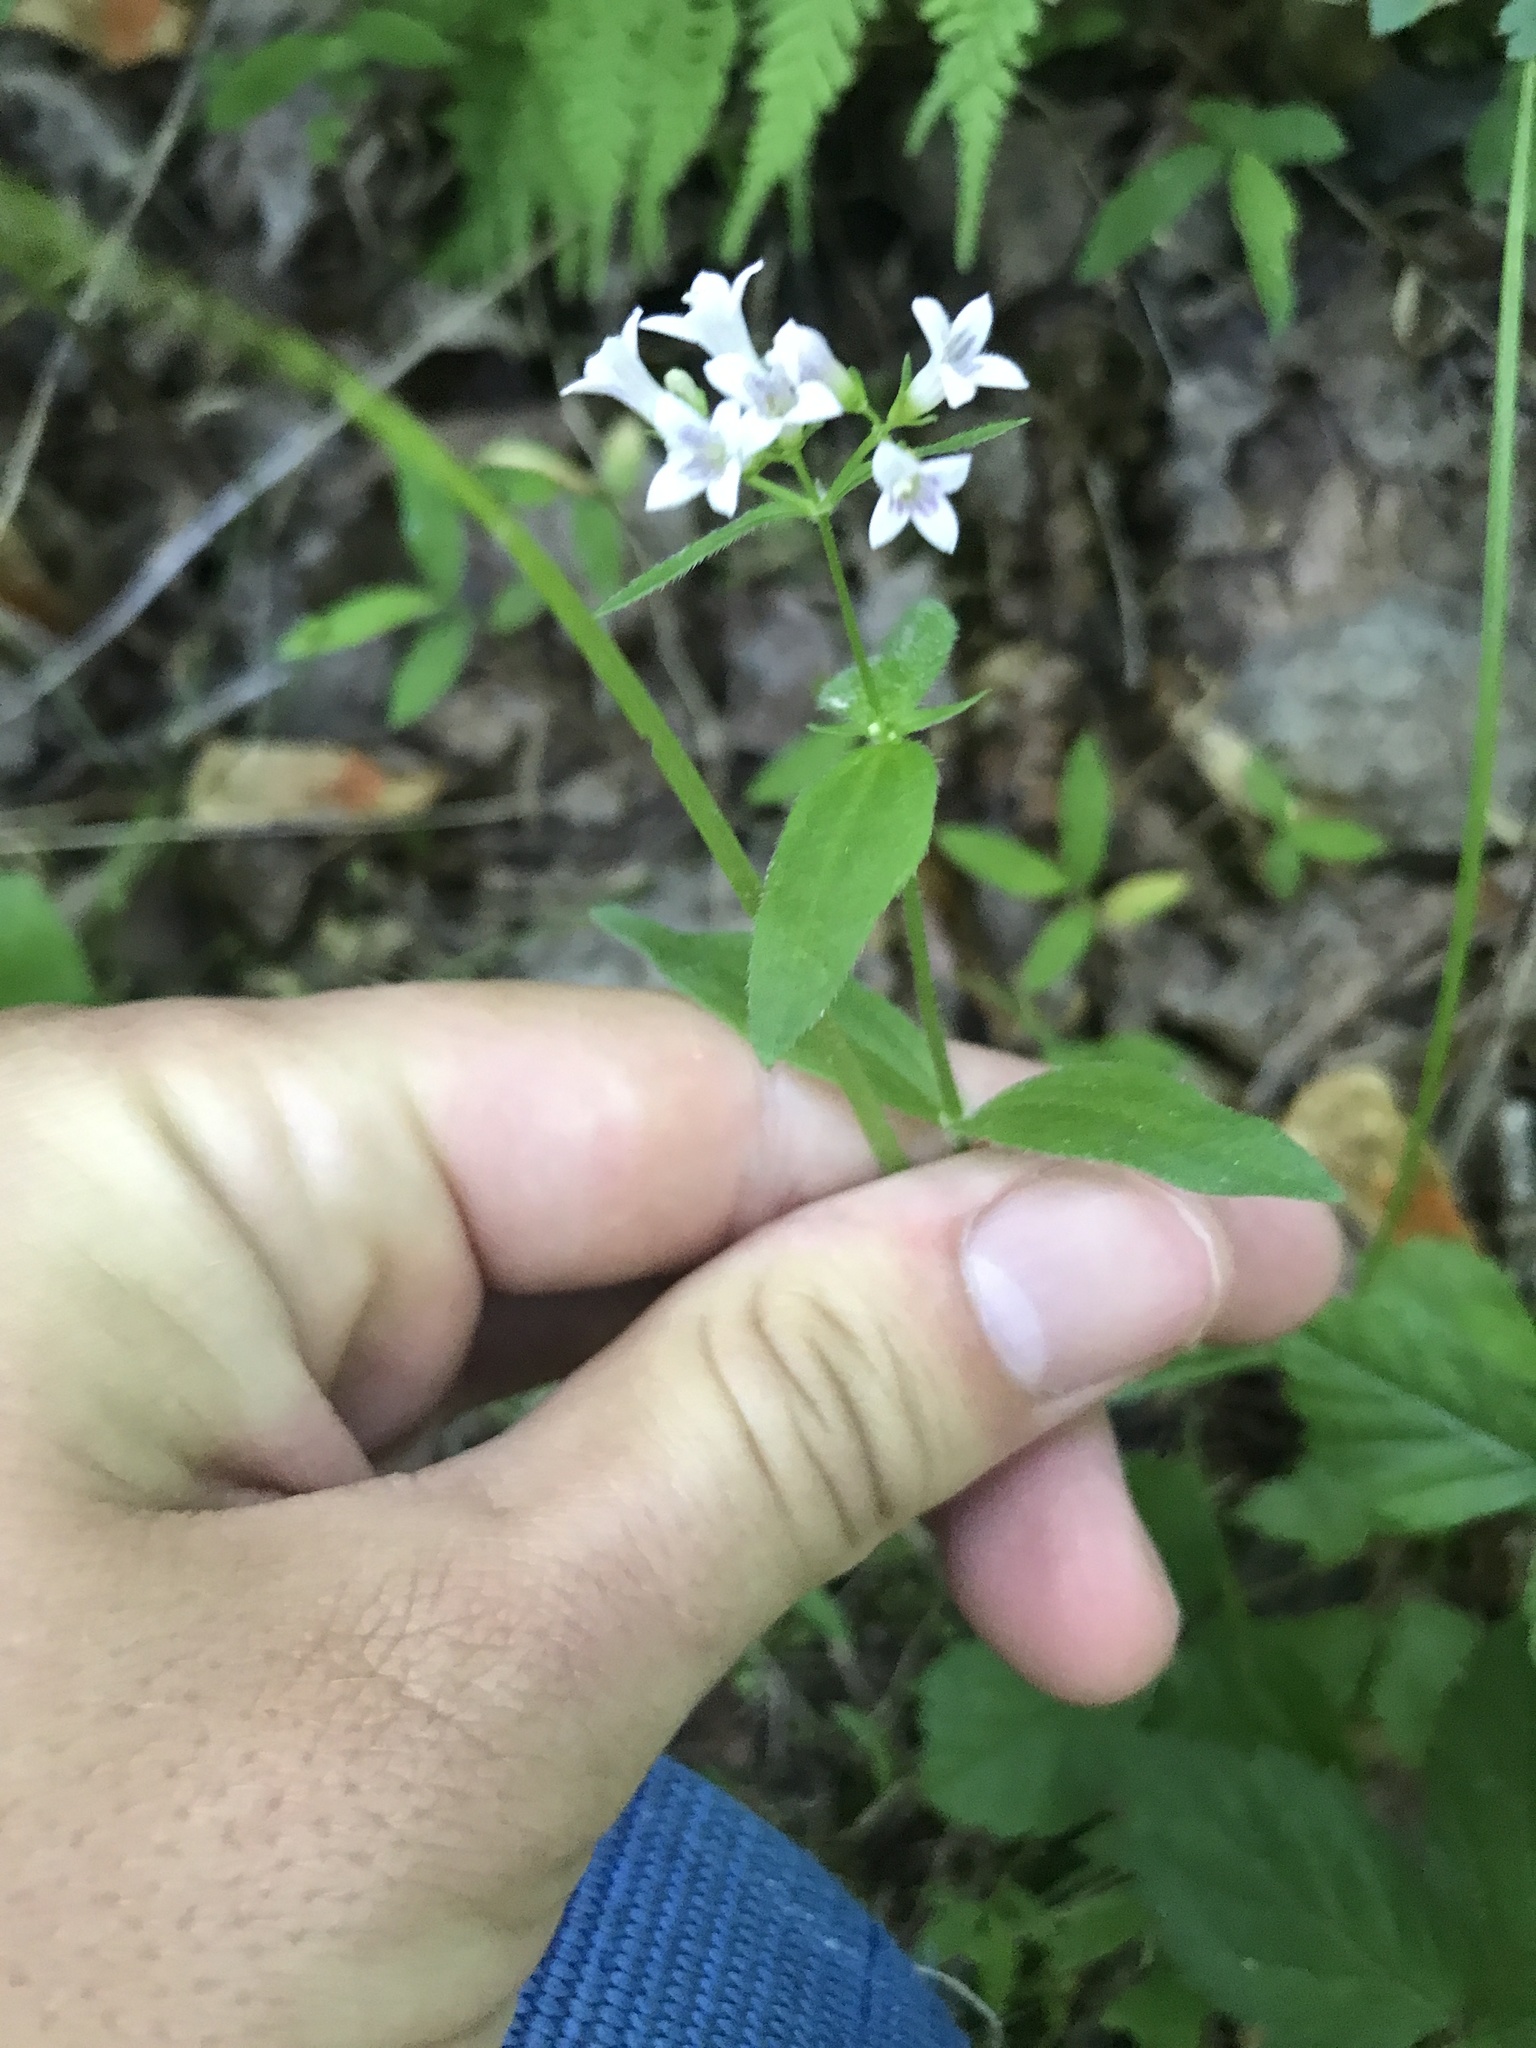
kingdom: Plantae
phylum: Tracheophyta
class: Magnoliopsida
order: Gentianales
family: Rubiaceae
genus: Houstonia
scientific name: Houstonia purpurea
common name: Summer bluet
